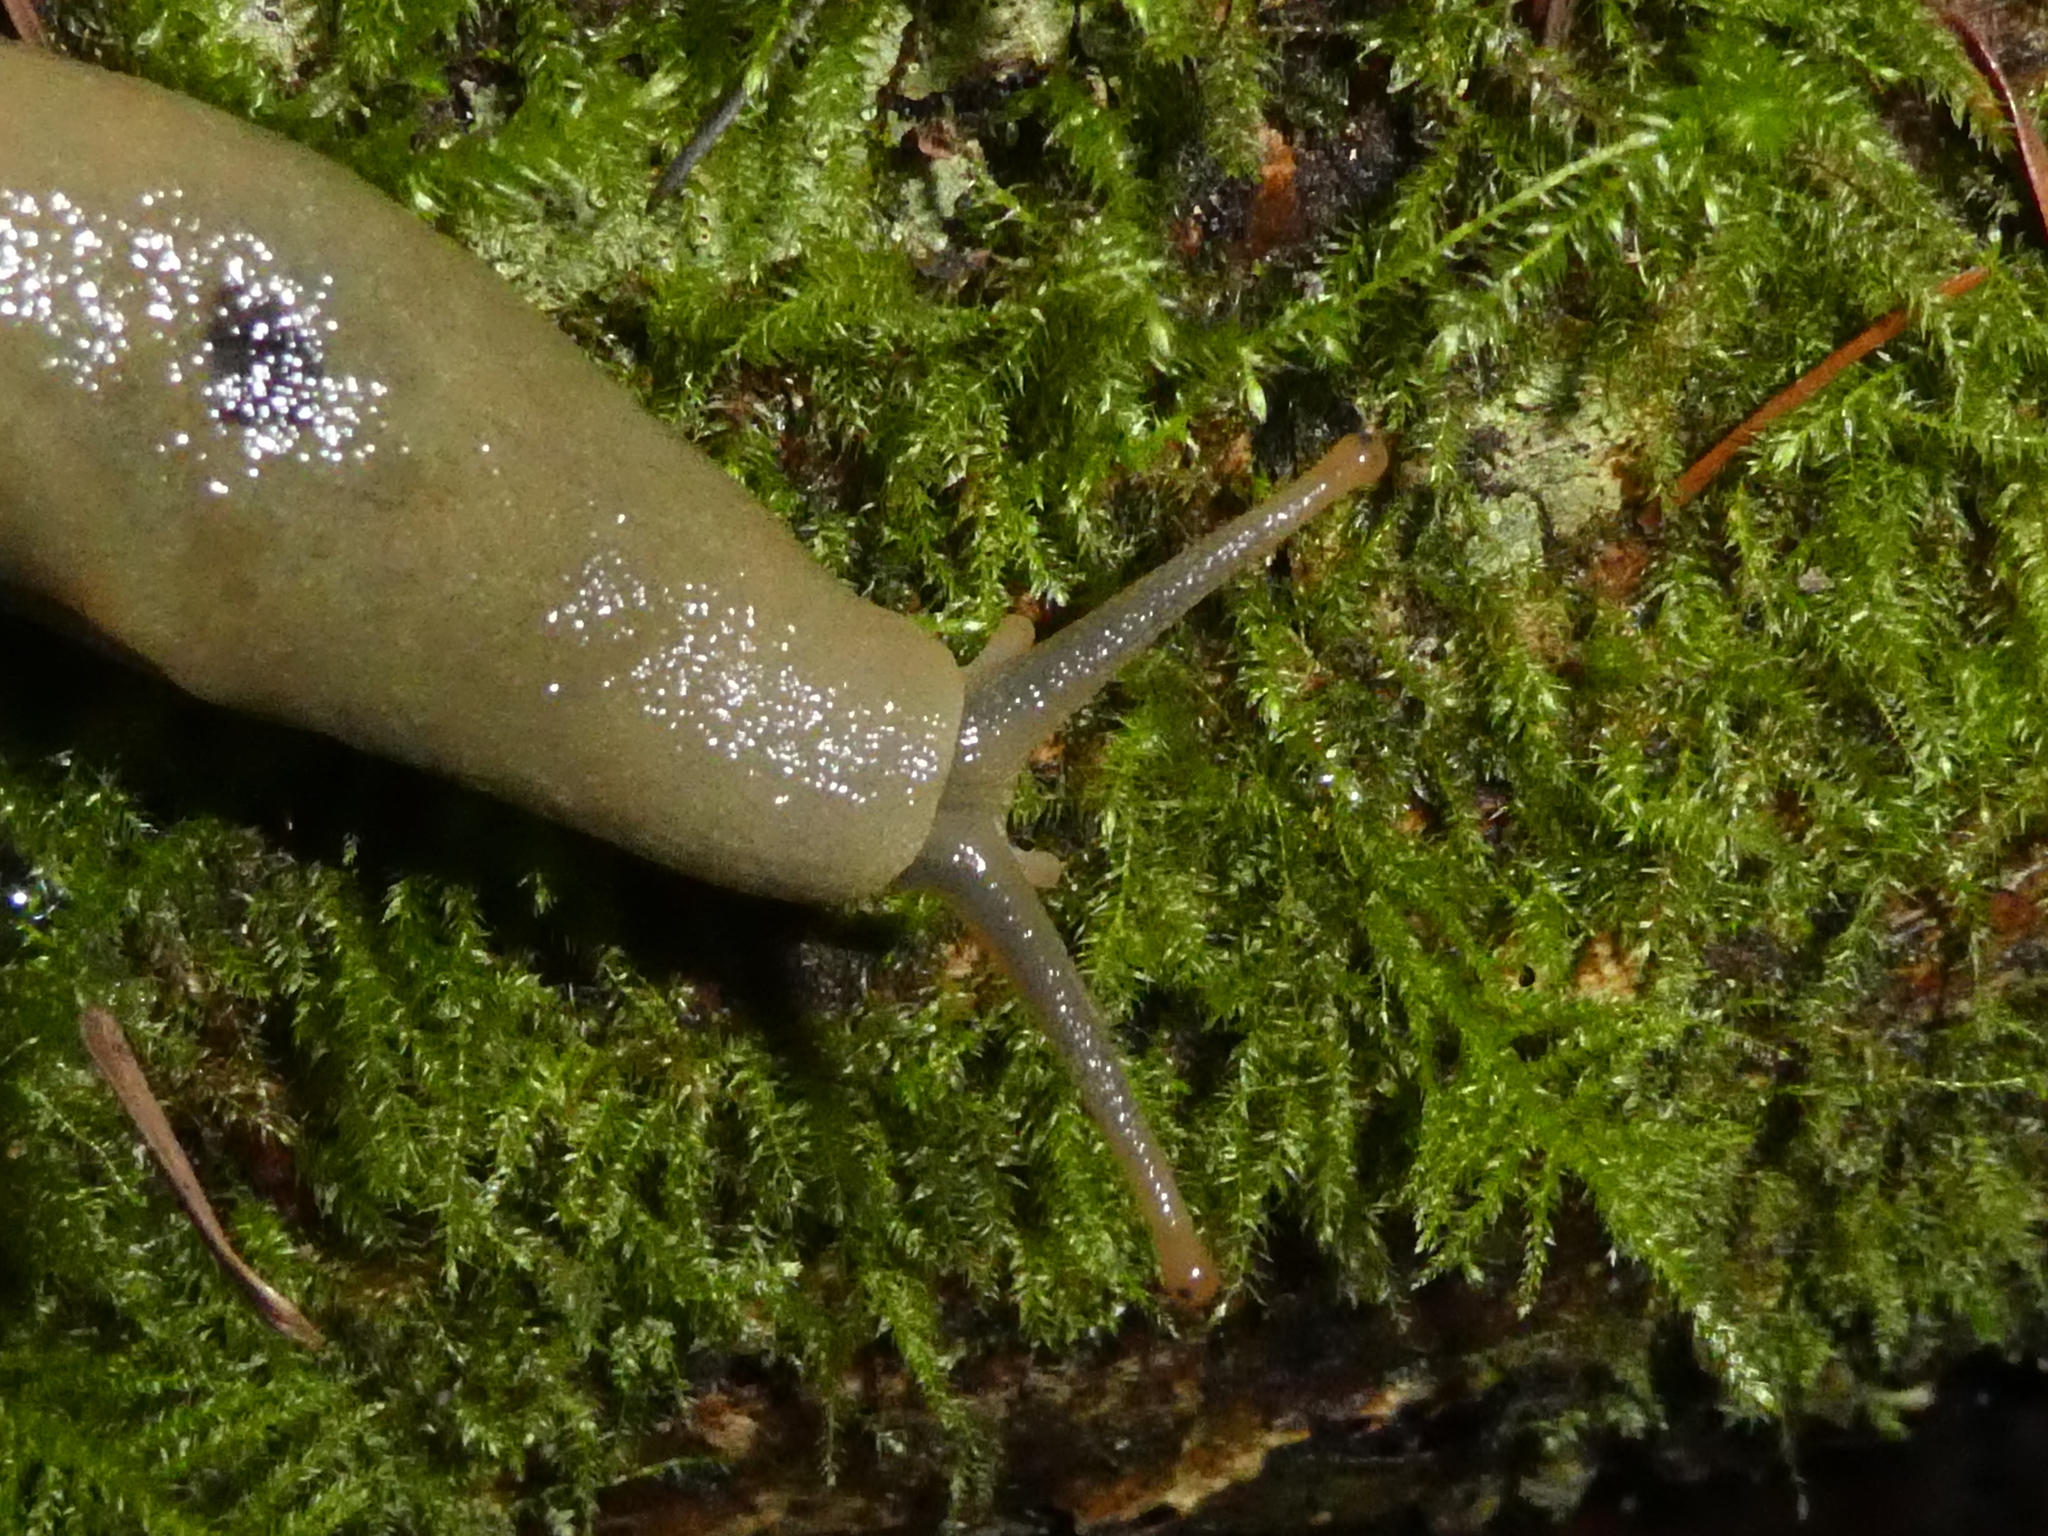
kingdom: Animalia
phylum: Mollusca
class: Gastropoda
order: Stylommatophora
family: Ariolimacidae
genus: Ariolimax
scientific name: Ariolimax columbianus
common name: Pacific banana slug
